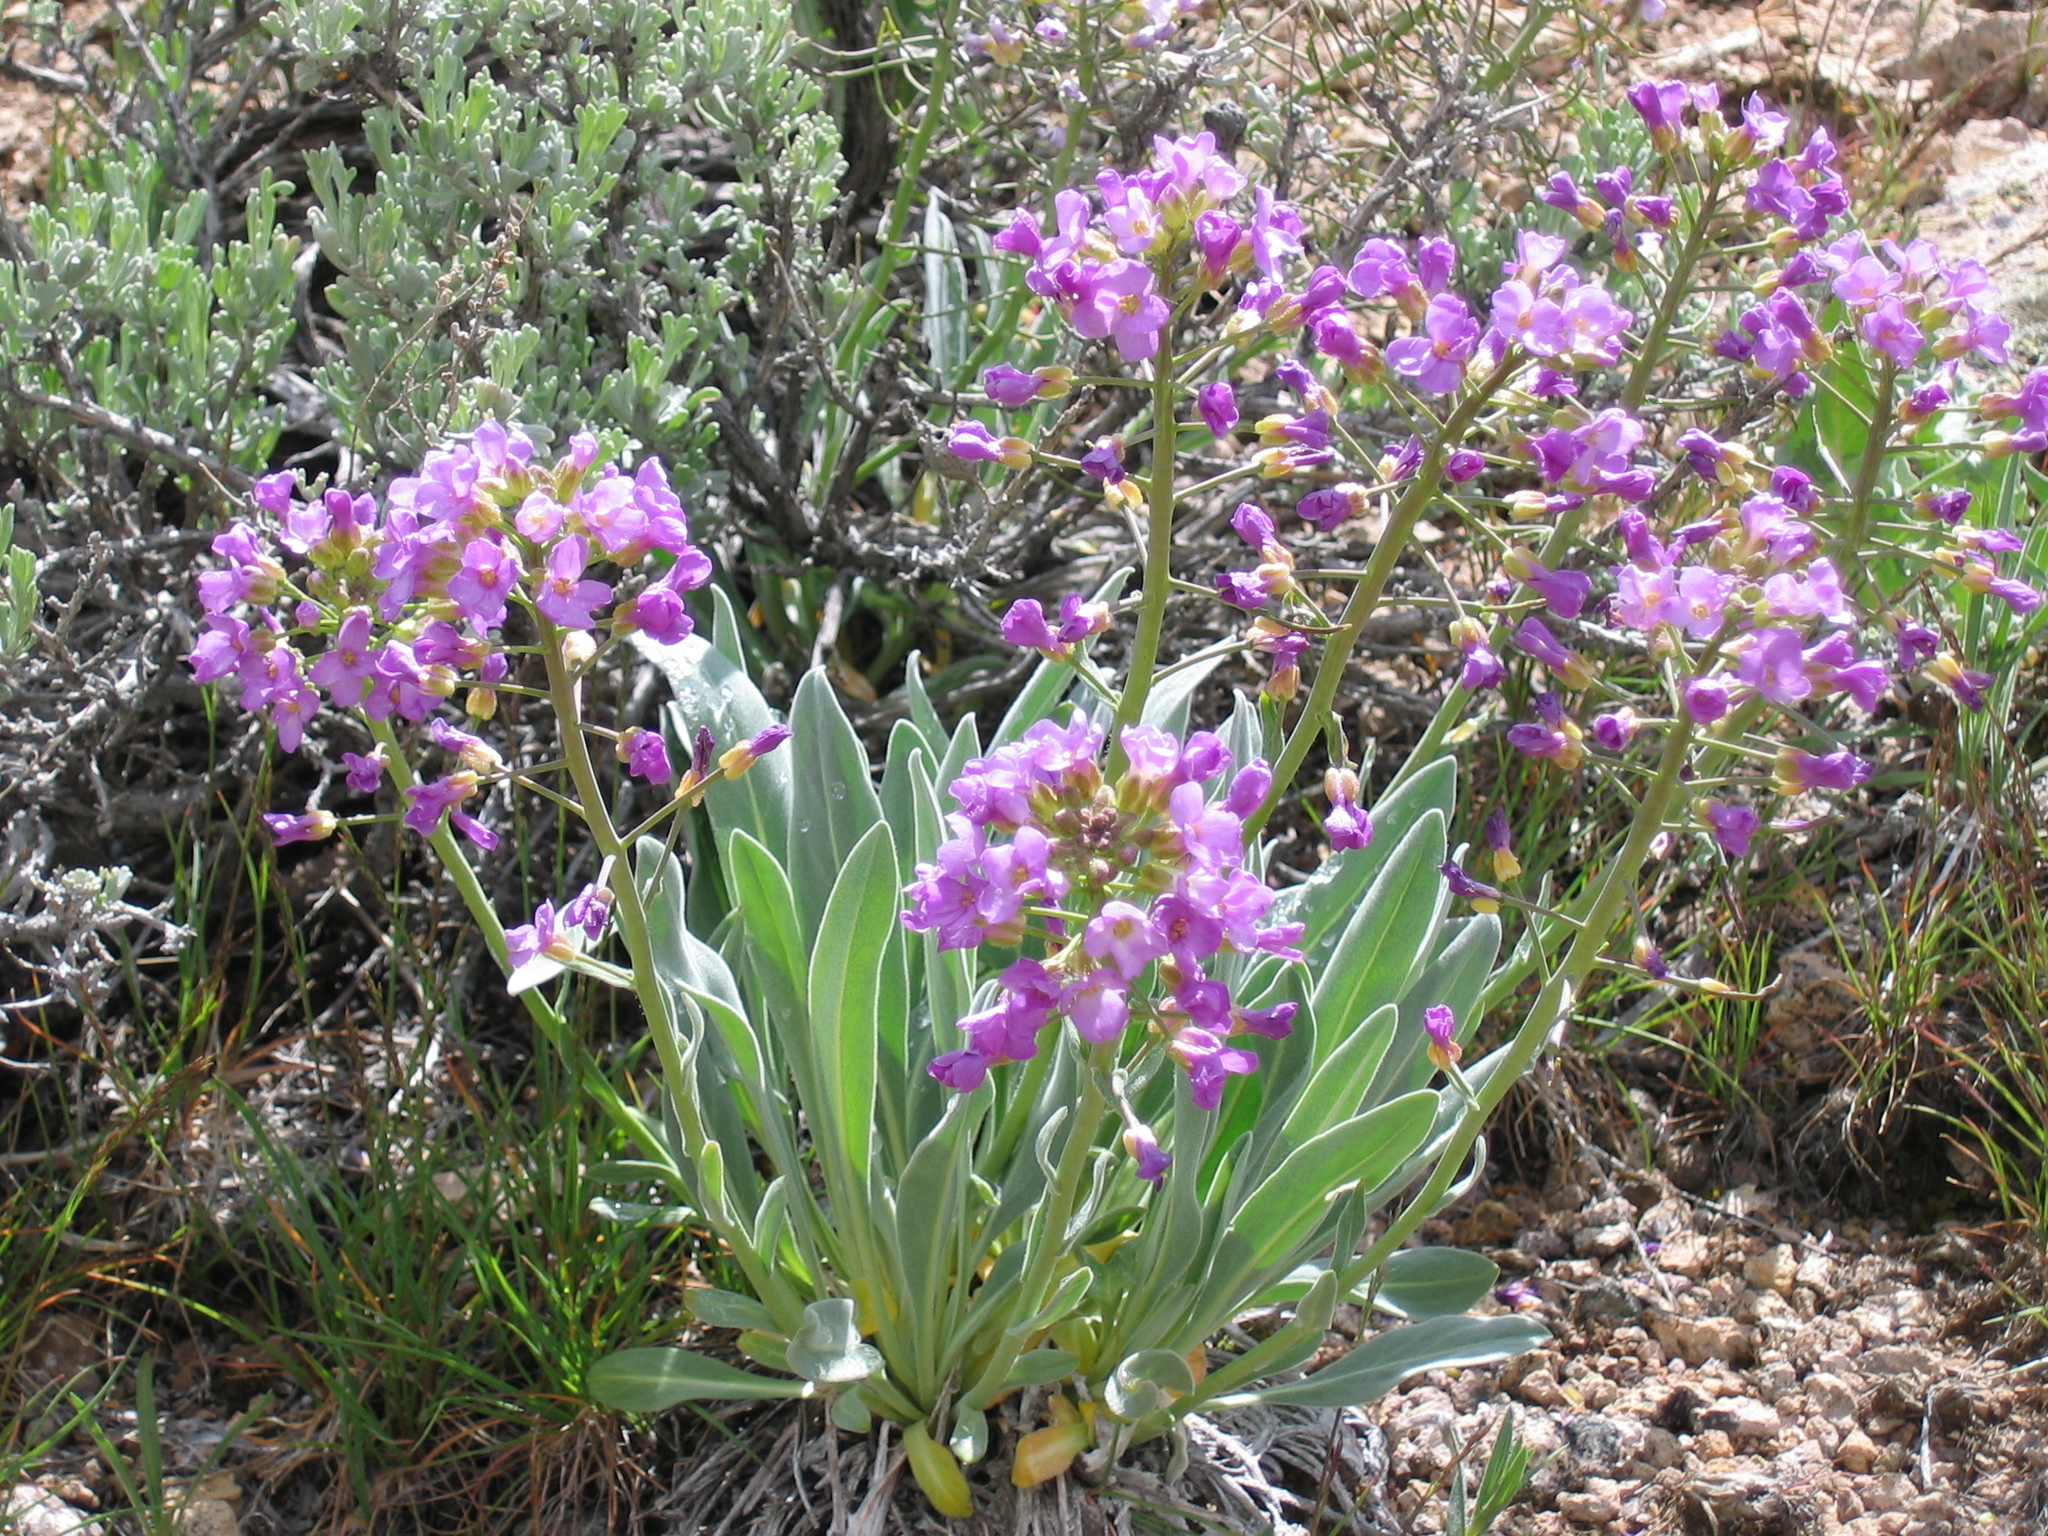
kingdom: Plantae
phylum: Tracheophyta
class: Magnoliopsida
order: Brassicales
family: Brassicaceae
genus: Phoenicaulis
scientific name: Phoenicaulis cheiranthoides
